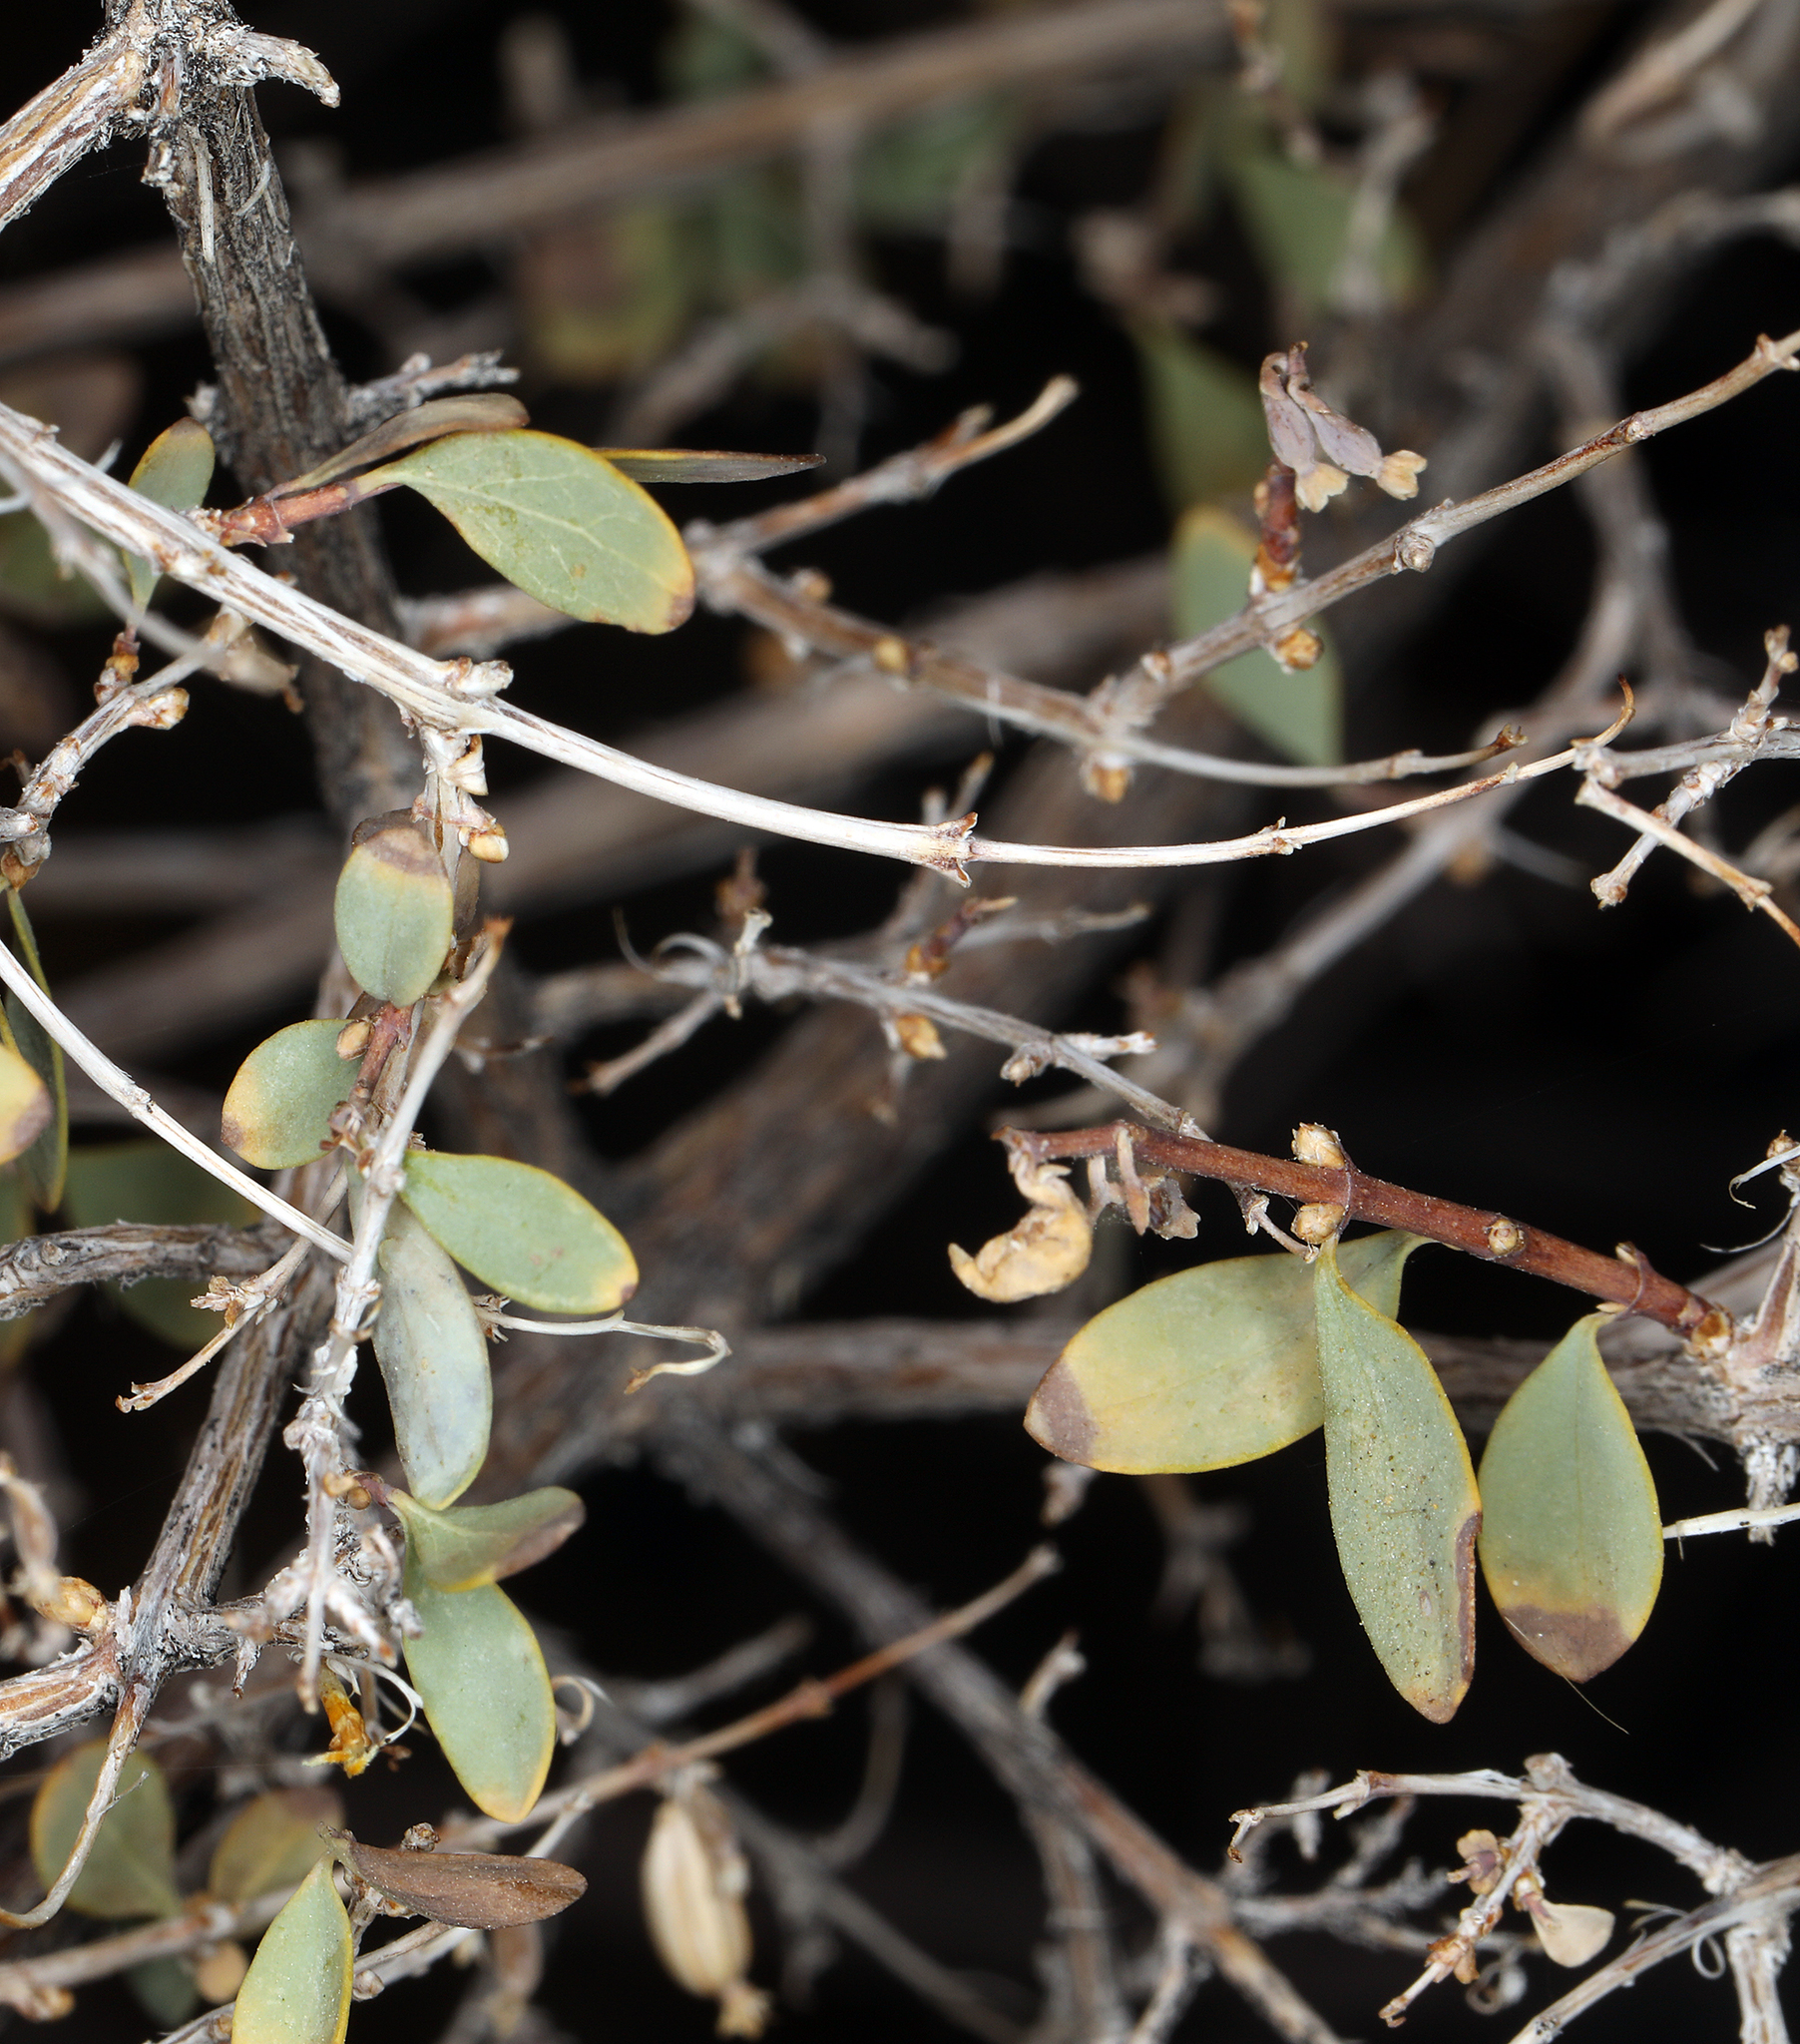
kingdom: Plantae
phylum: Tracheophyta
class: Magnoliopsida
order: Dipsacales
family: Caprifoliaceae
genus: Symphoricarpos
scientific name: Symphoricarpos longiflorus
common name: Fragrant snowberry
